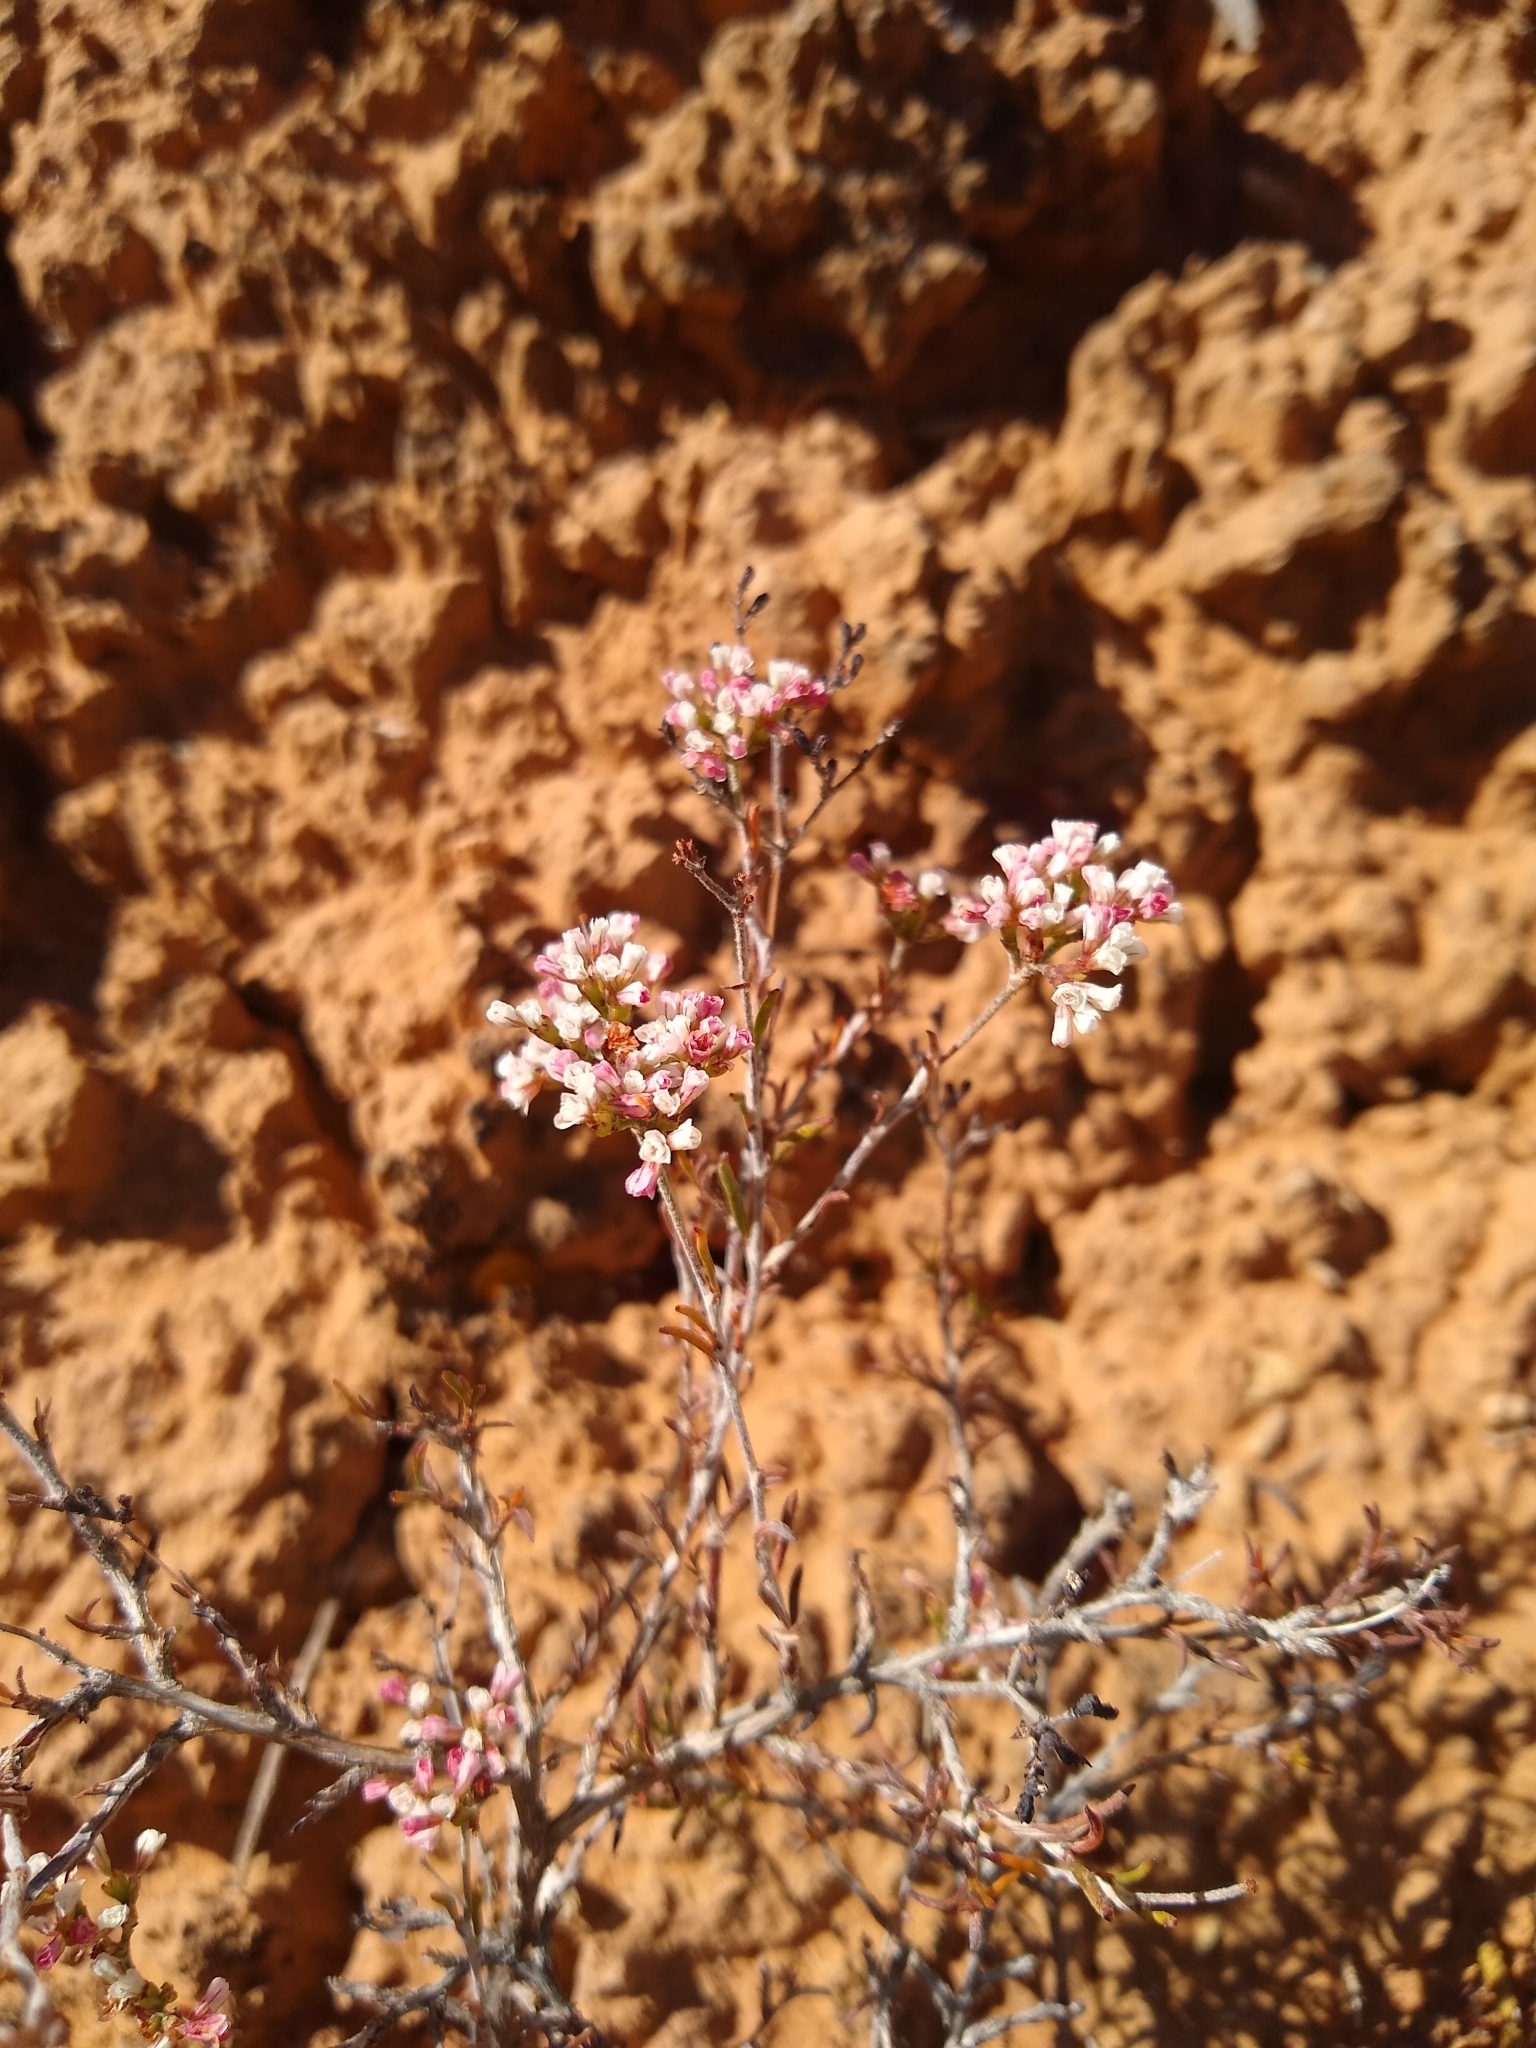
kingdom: Plantae
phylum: Tracheophyta
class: Magnoliopsida
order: Caryophyllales
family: Polygonaceae
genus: Eriogonum
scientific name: Eriogonum microtheca
